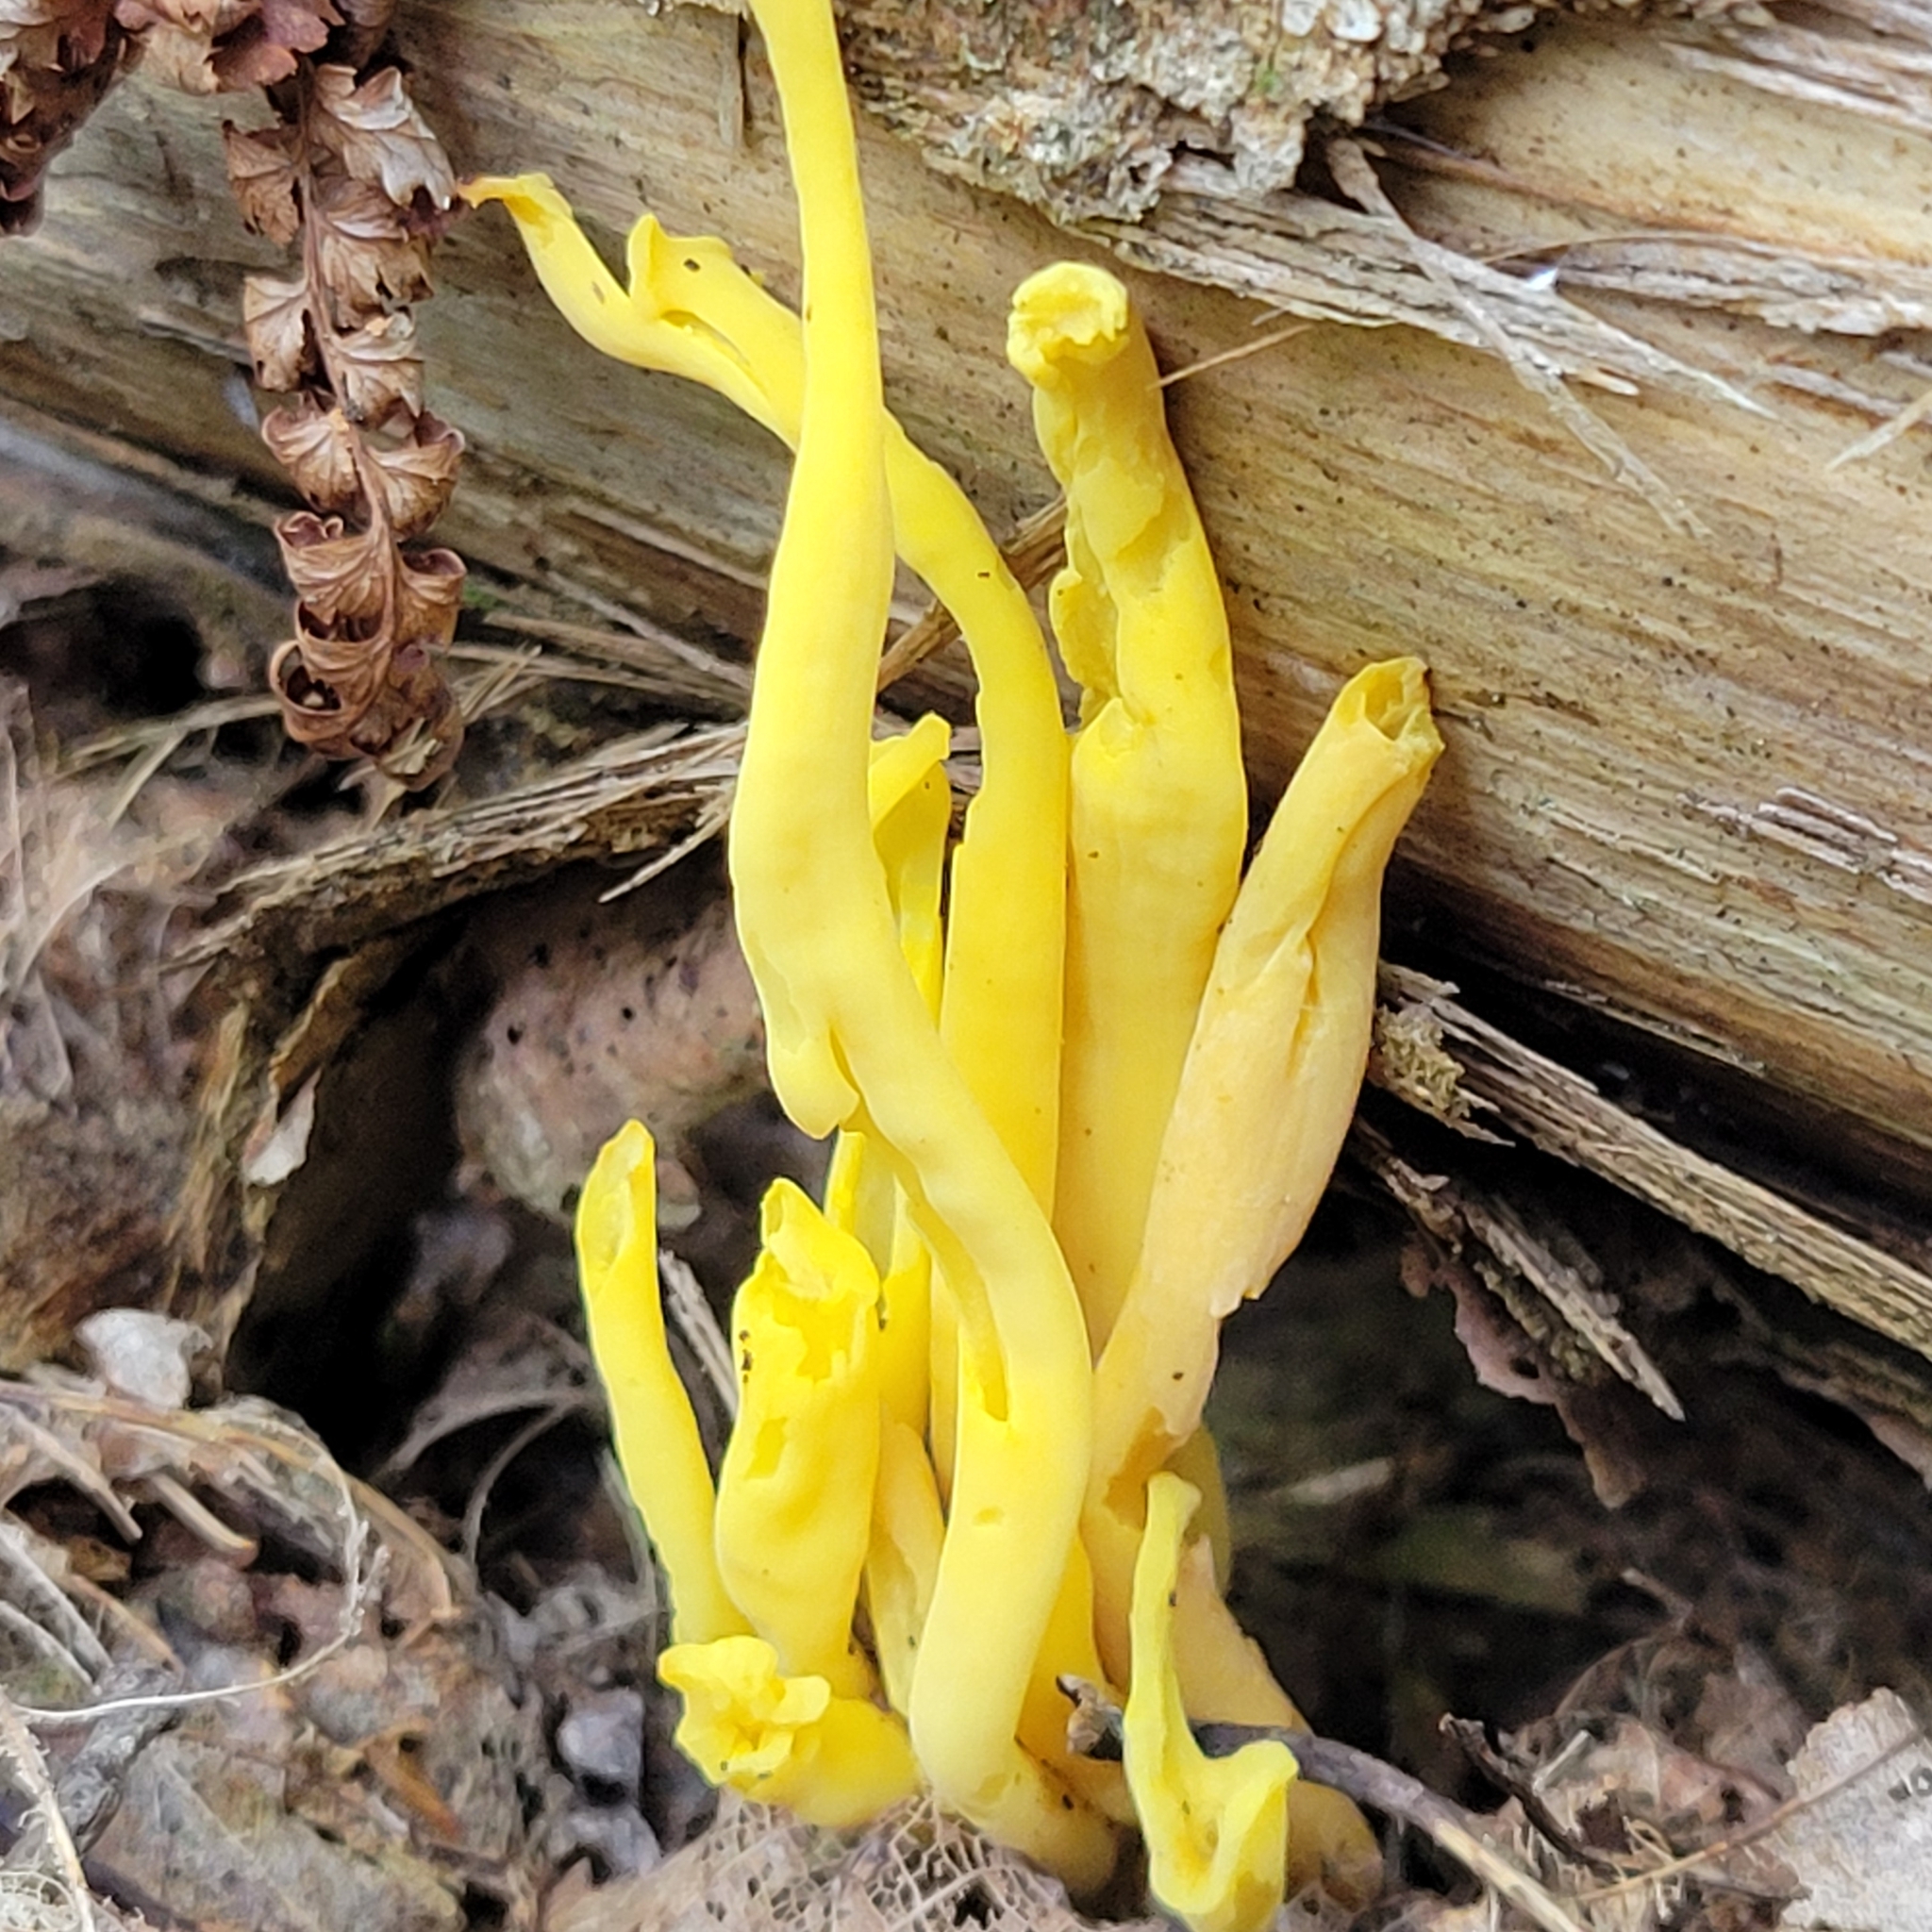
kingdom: Fungi
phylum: Basidiomycota
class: Agaricomycetes
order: Agaricales
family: Clavariaceae
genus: Clavulinopsis
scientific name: Clavulinopsis fusiformis
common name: Golden spindles
